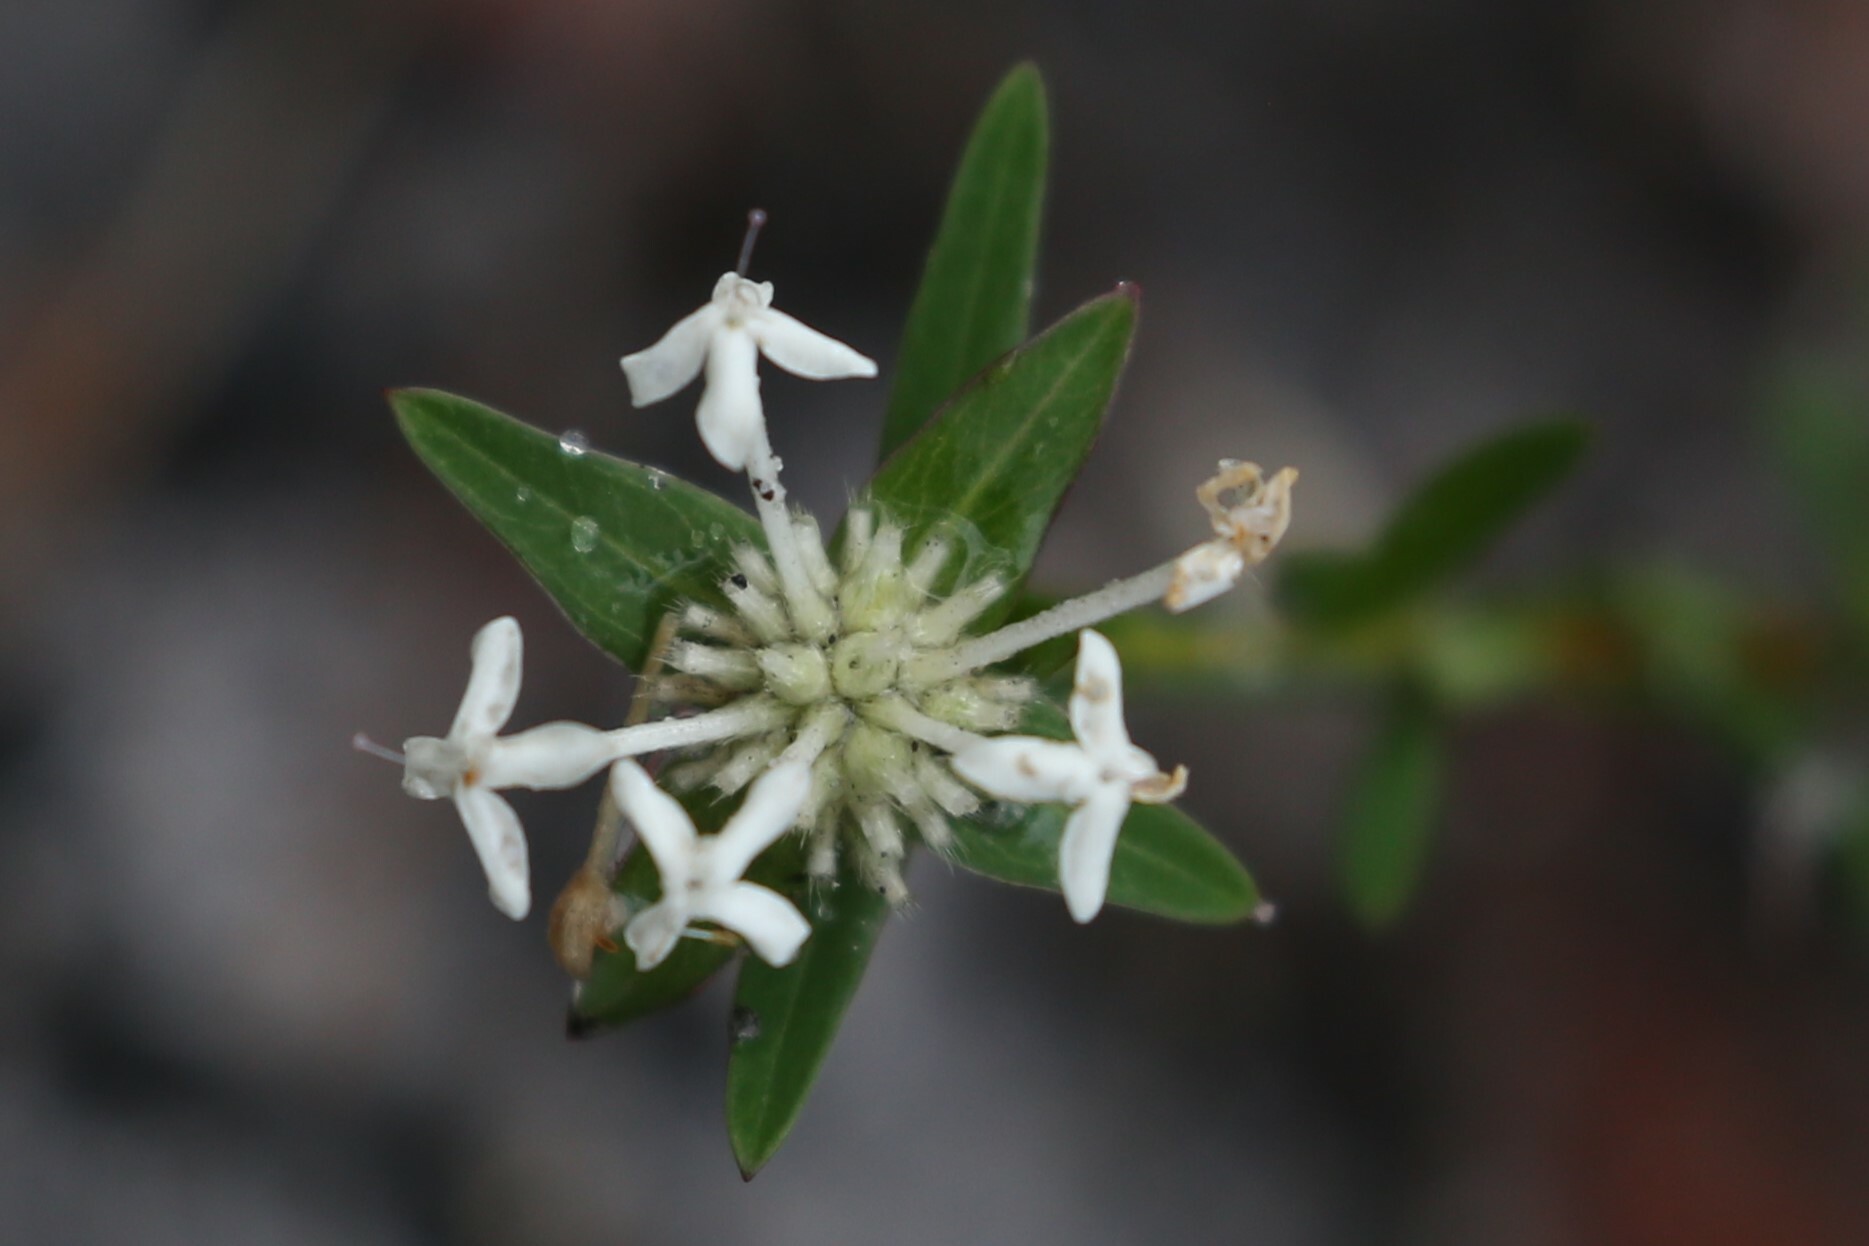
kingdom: Plantae
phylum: Tracheophyta
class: Magnoliopsida
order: Malvales
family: Thymelaeaceae
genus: Pimelea
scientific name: Pimelea linifolia
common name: Queen-of-the-bush
